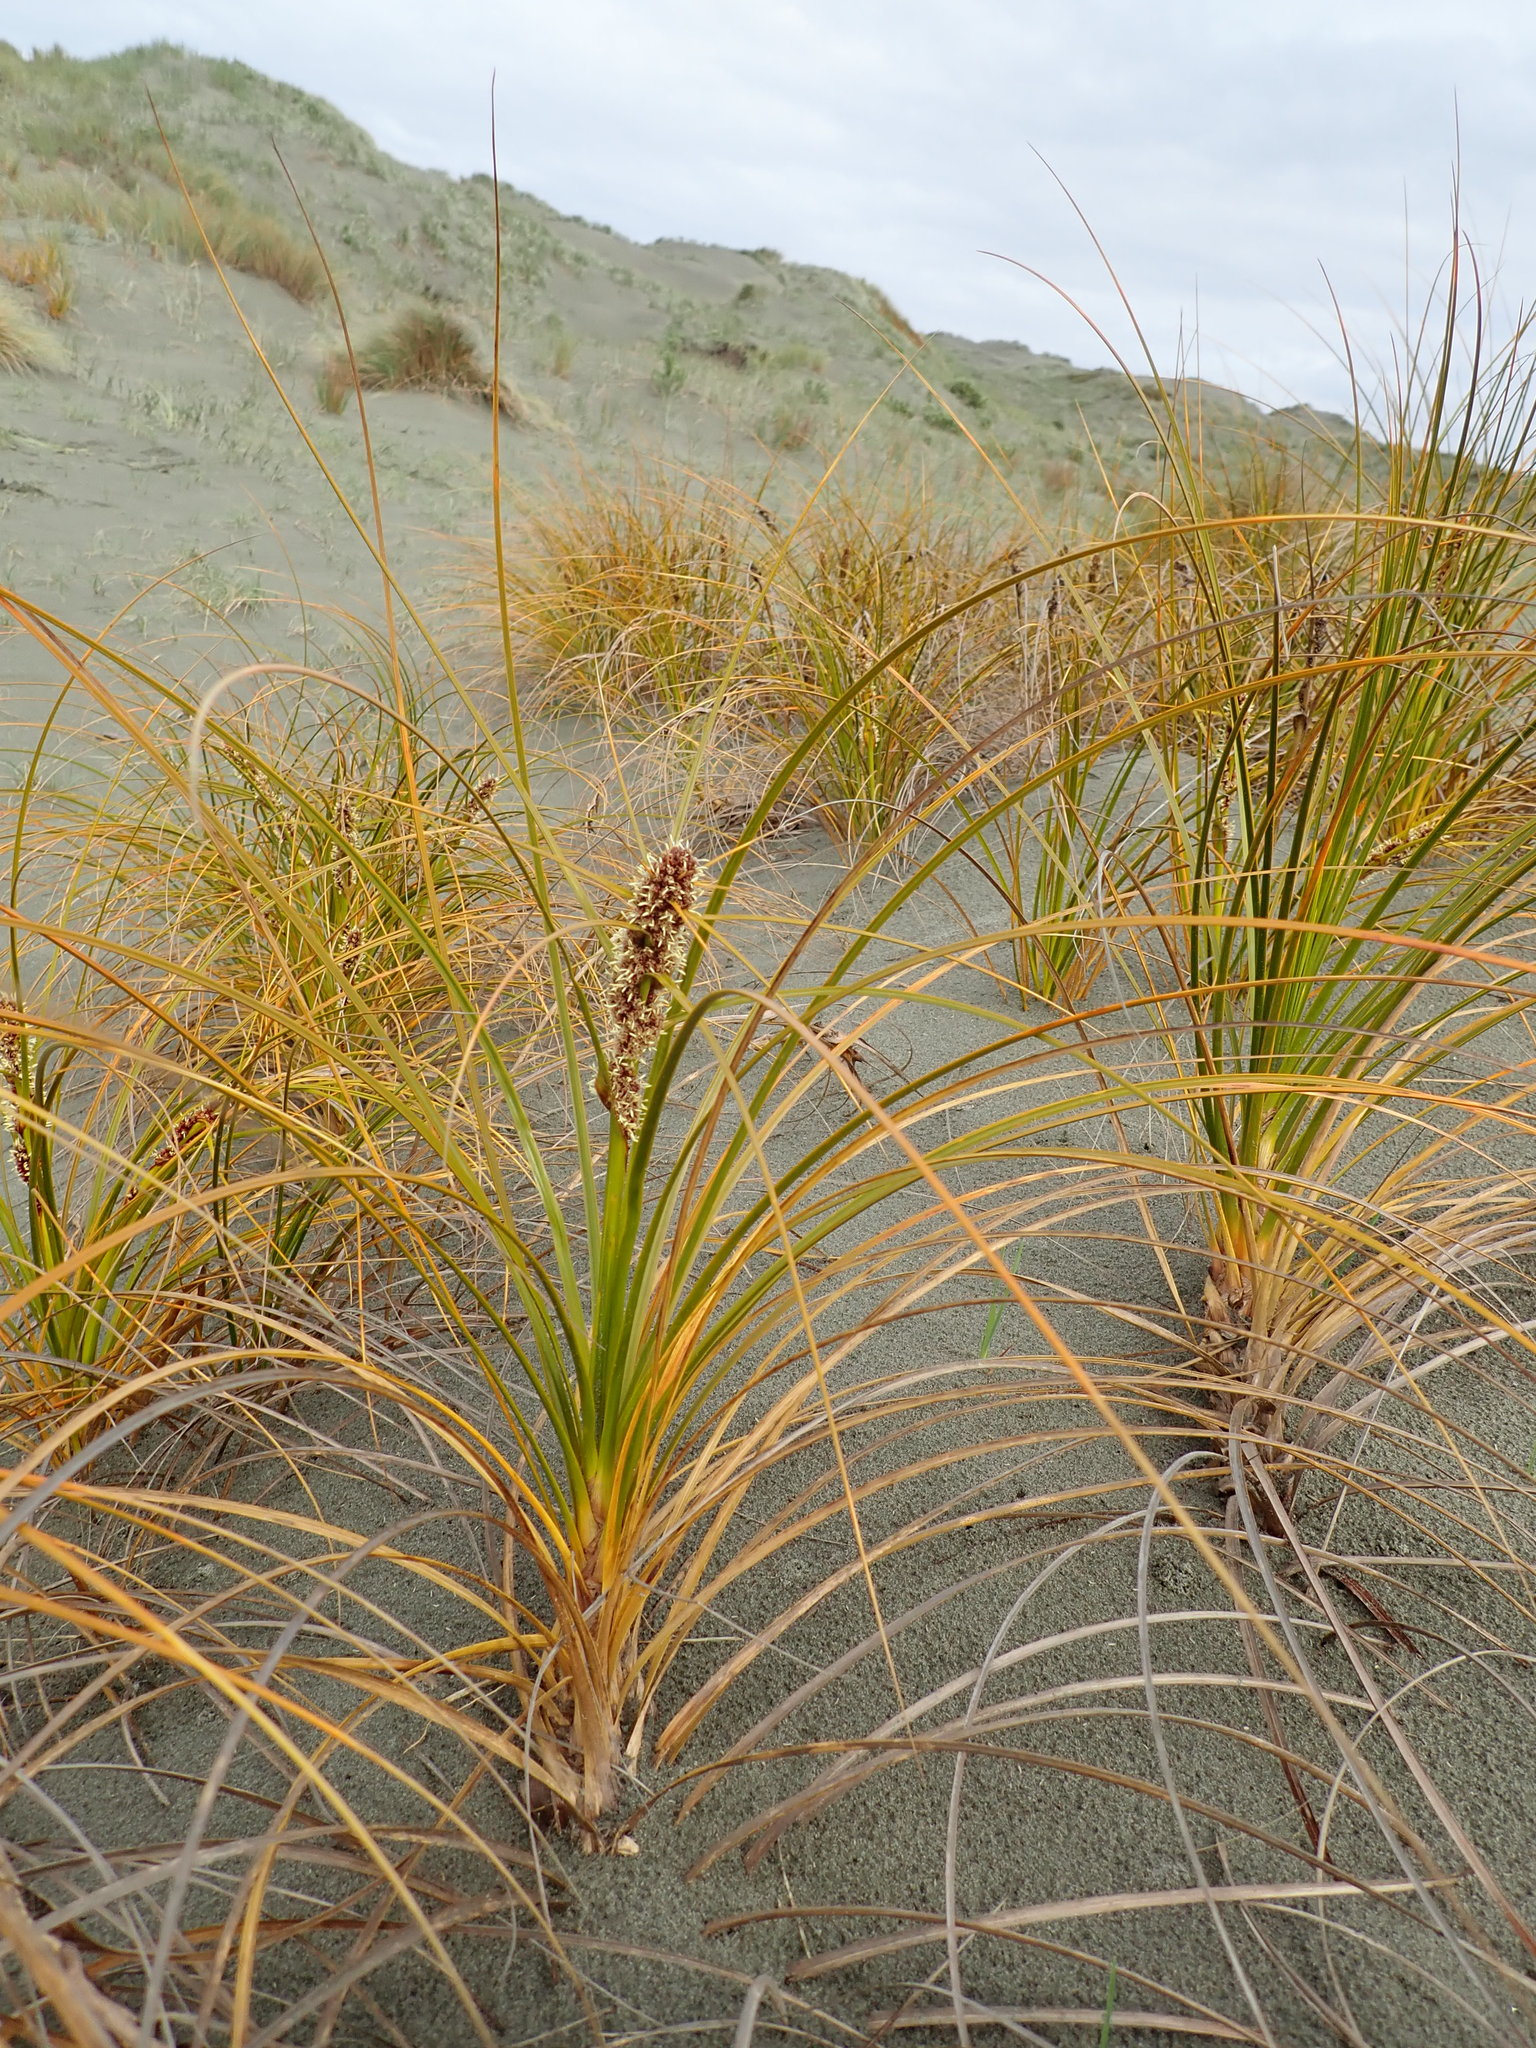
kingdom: Plantae
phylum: Tracheophyta
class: Liliopsida
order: Poales
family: Cyperaceae
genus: Ficinia
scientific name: Ficinia spiralis
